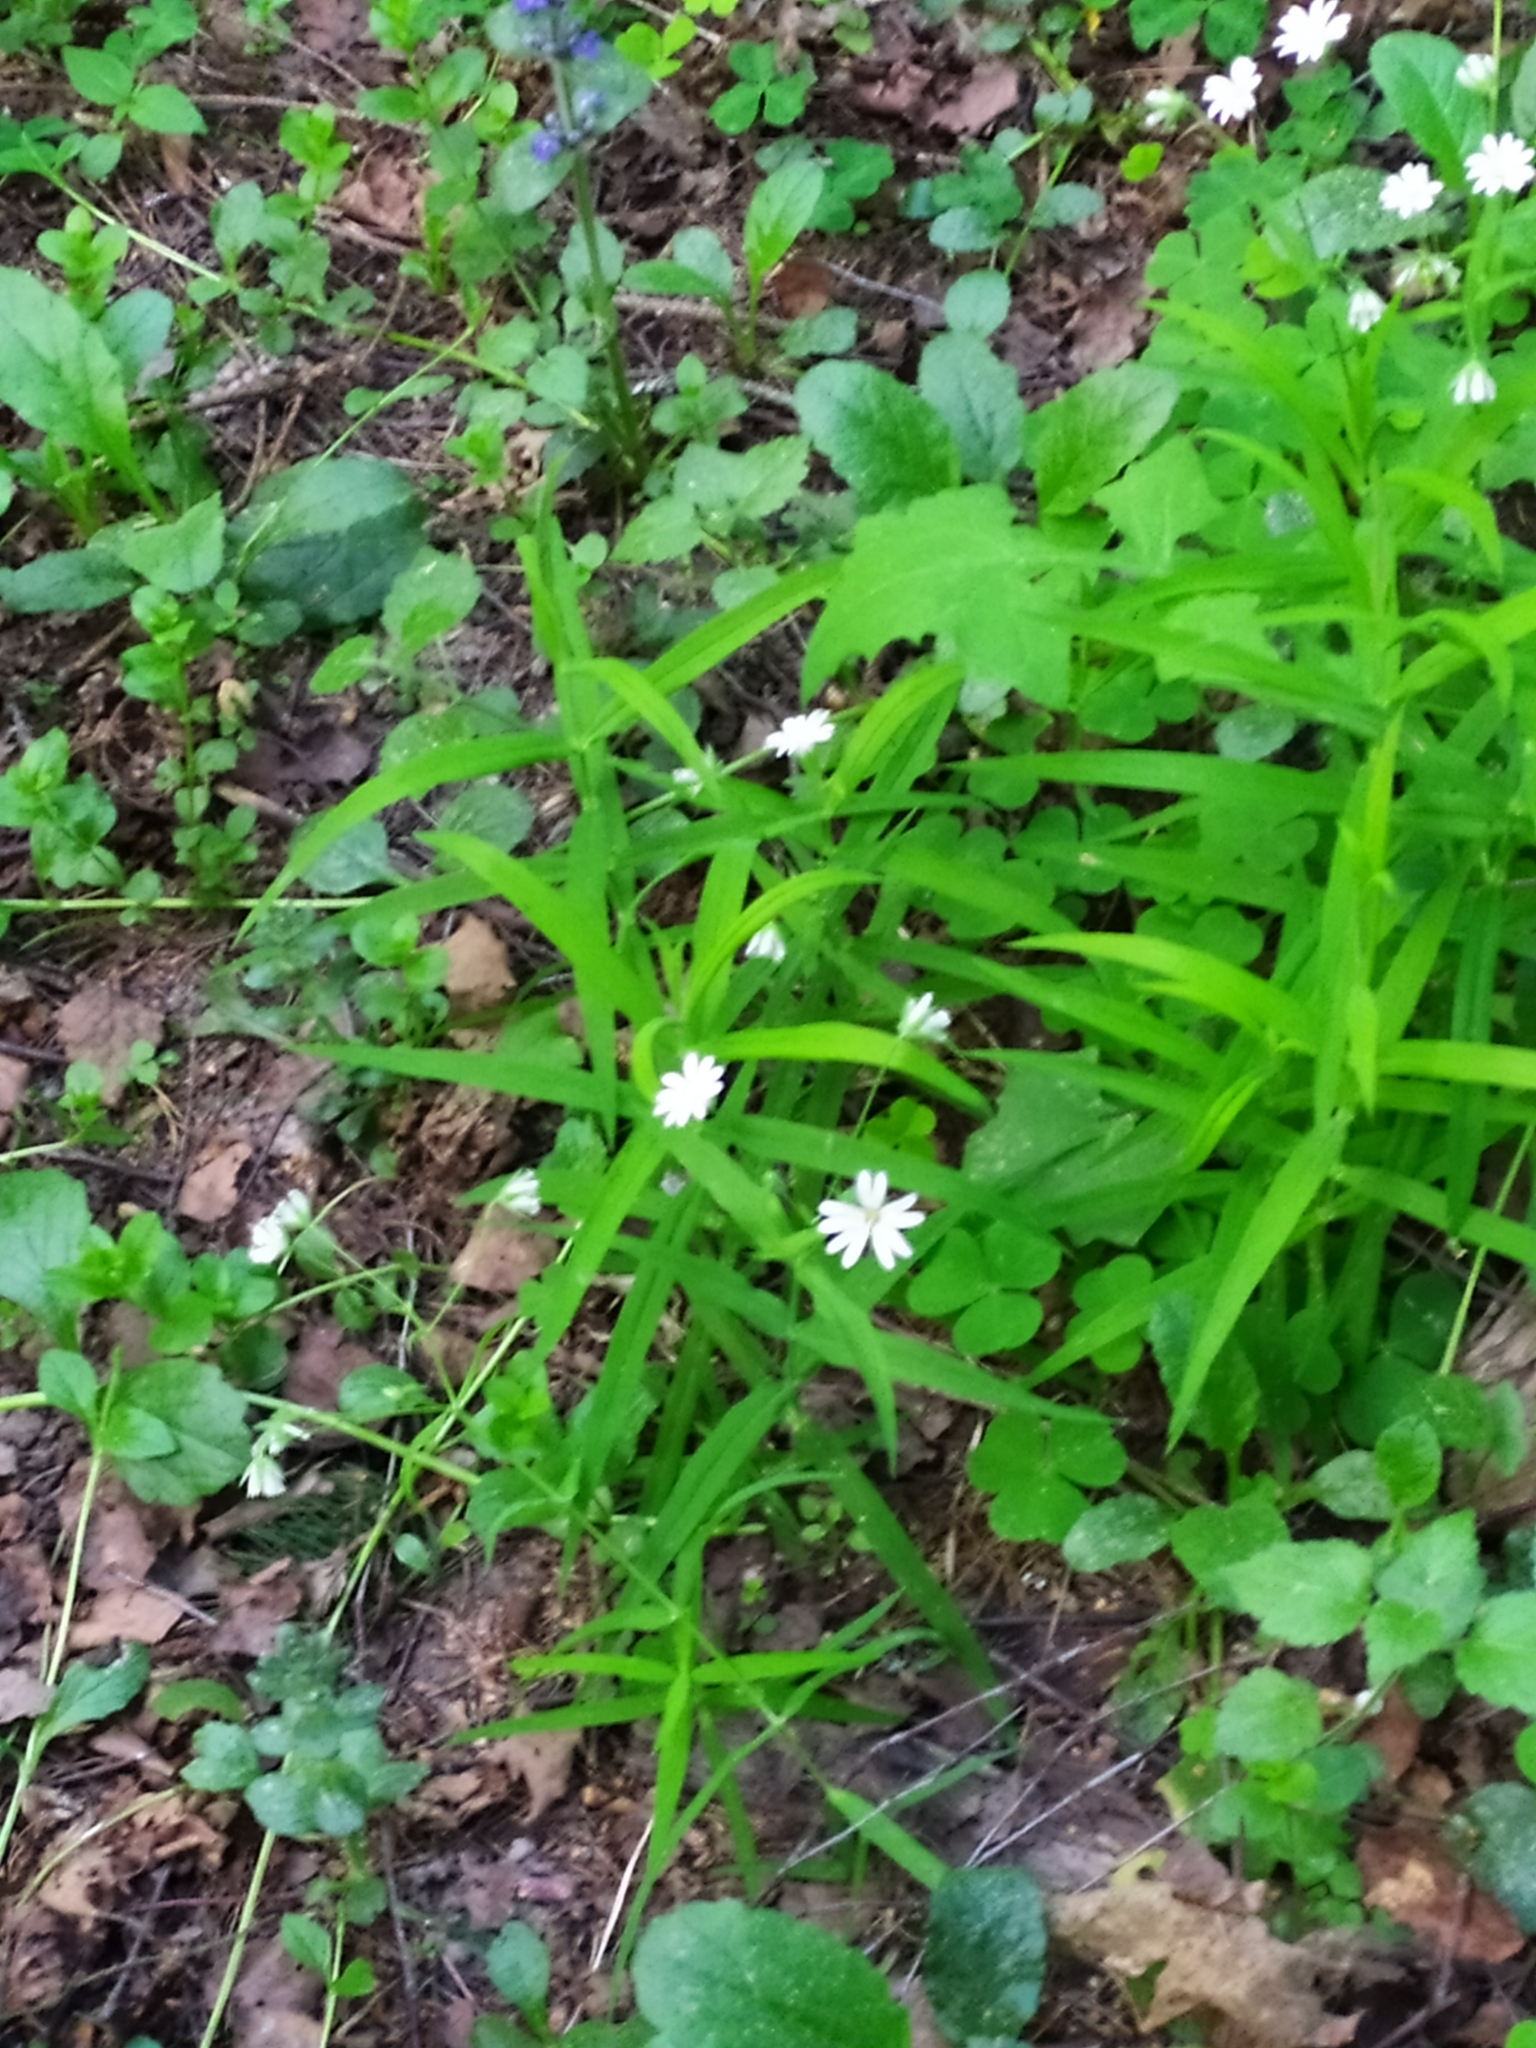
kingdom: Plantae
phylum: Tracheophyta
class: Magnoliopsida
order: Caryophyllales
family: Caryophyllaceae
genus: Rabelera
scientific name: Rabelera holostea
